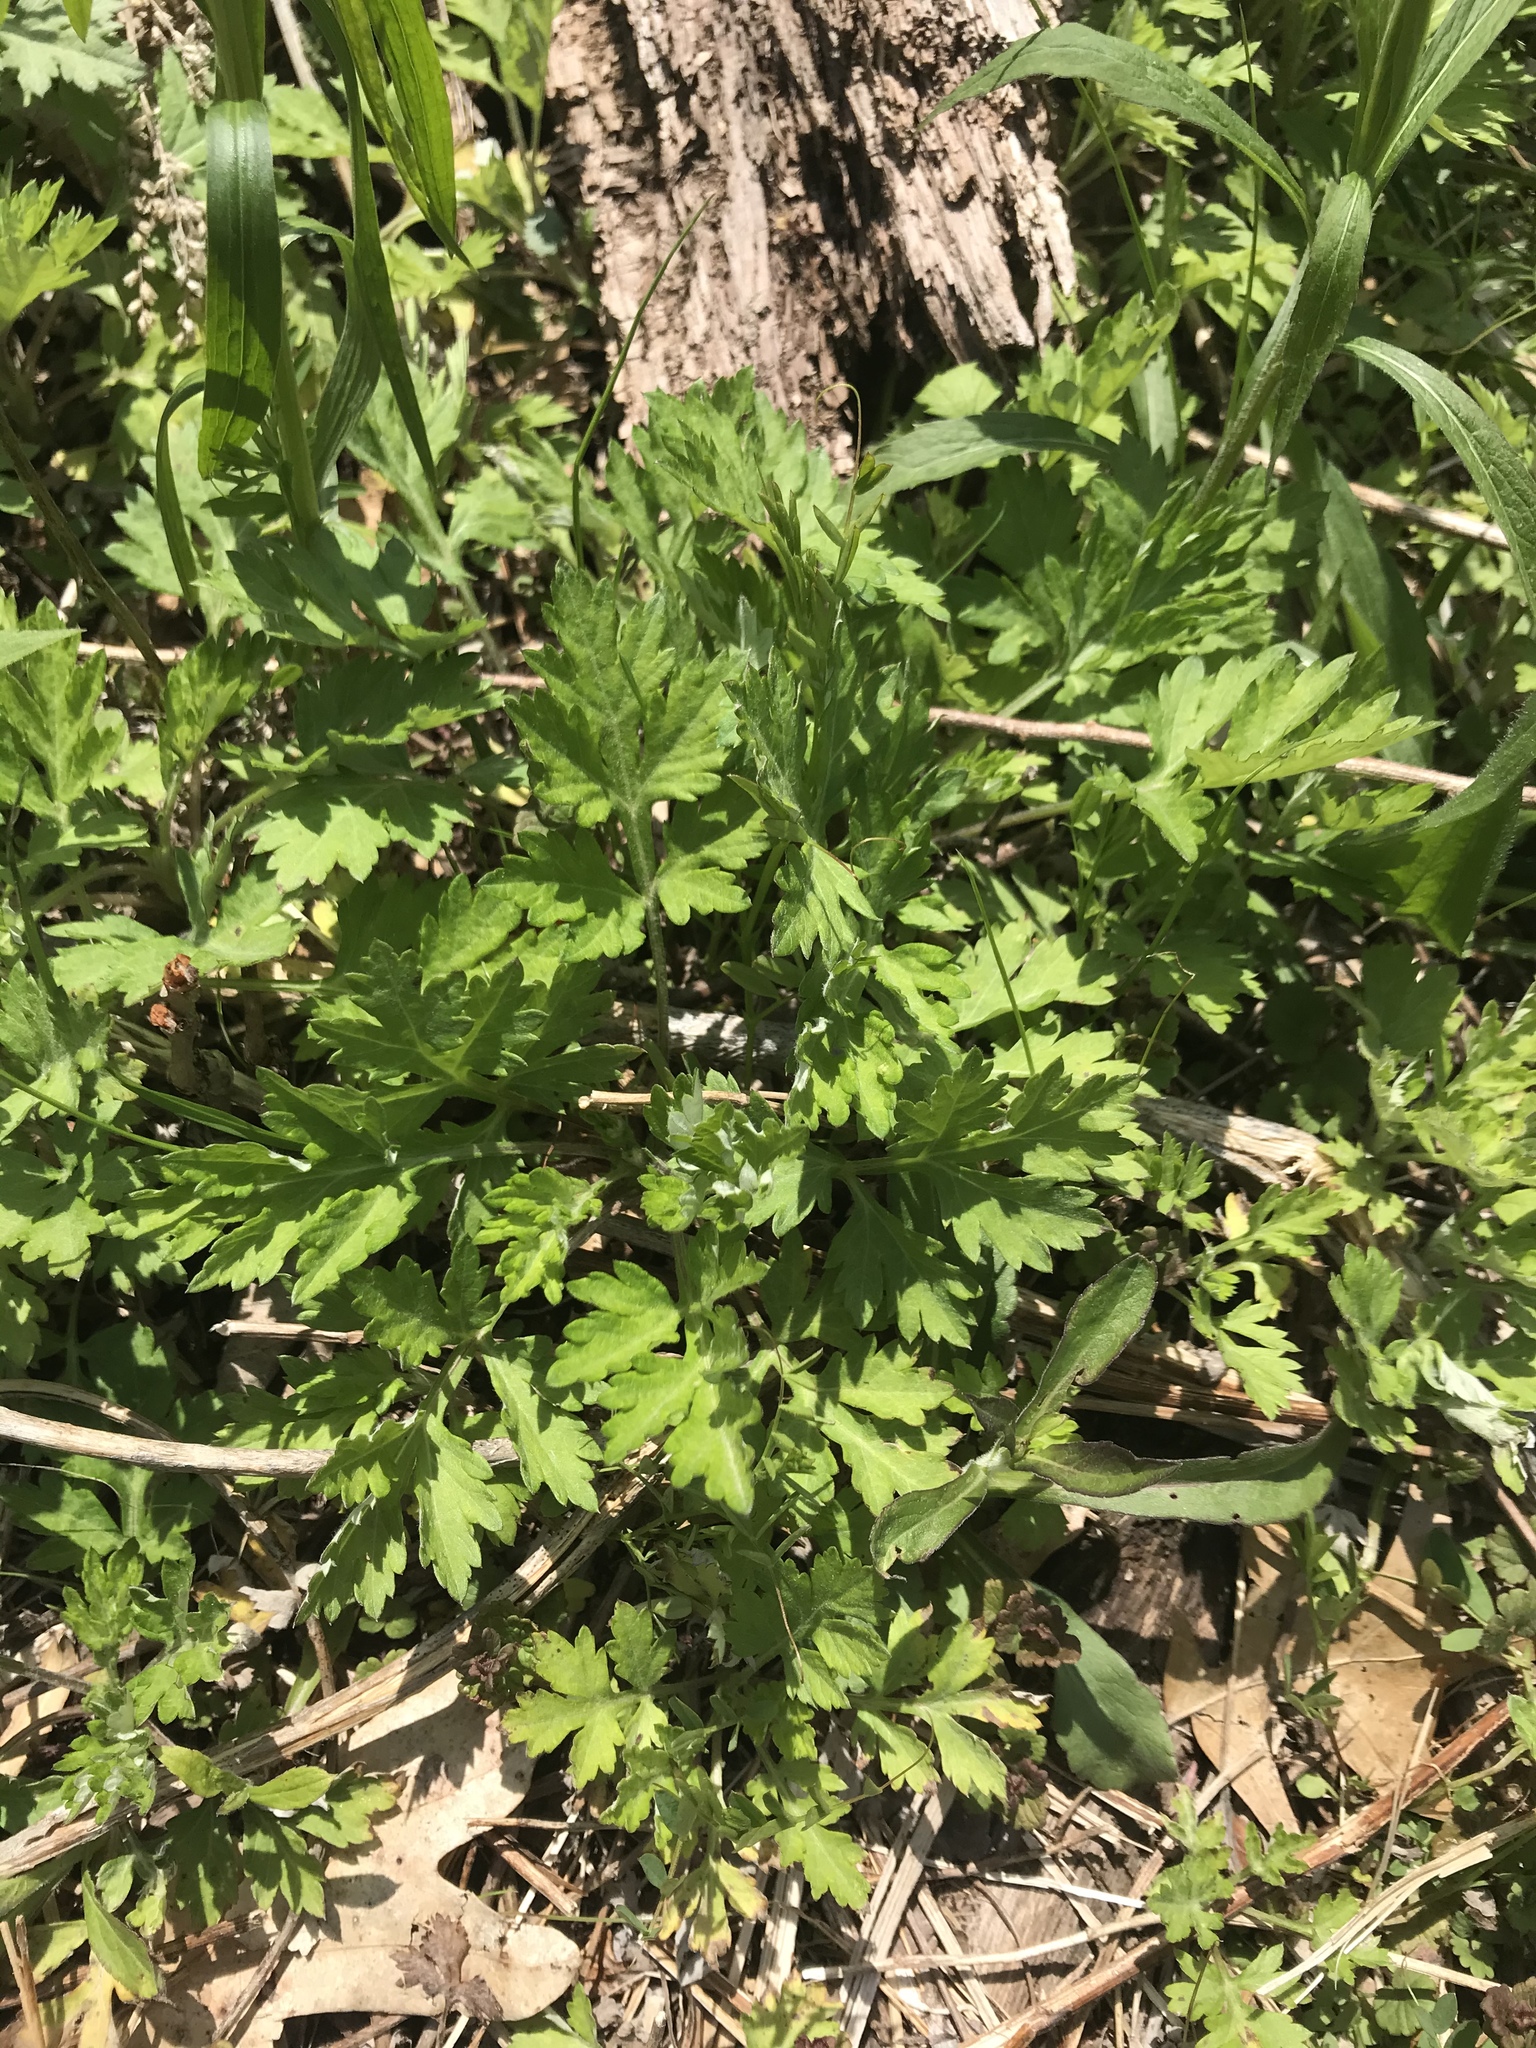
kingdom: Plantae
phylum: Tracheophyta
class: Magnoliopsida
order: Asterales
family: Asteraceae
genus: Artemisia
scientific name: Artemisia vulgaris
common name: Mugwort
